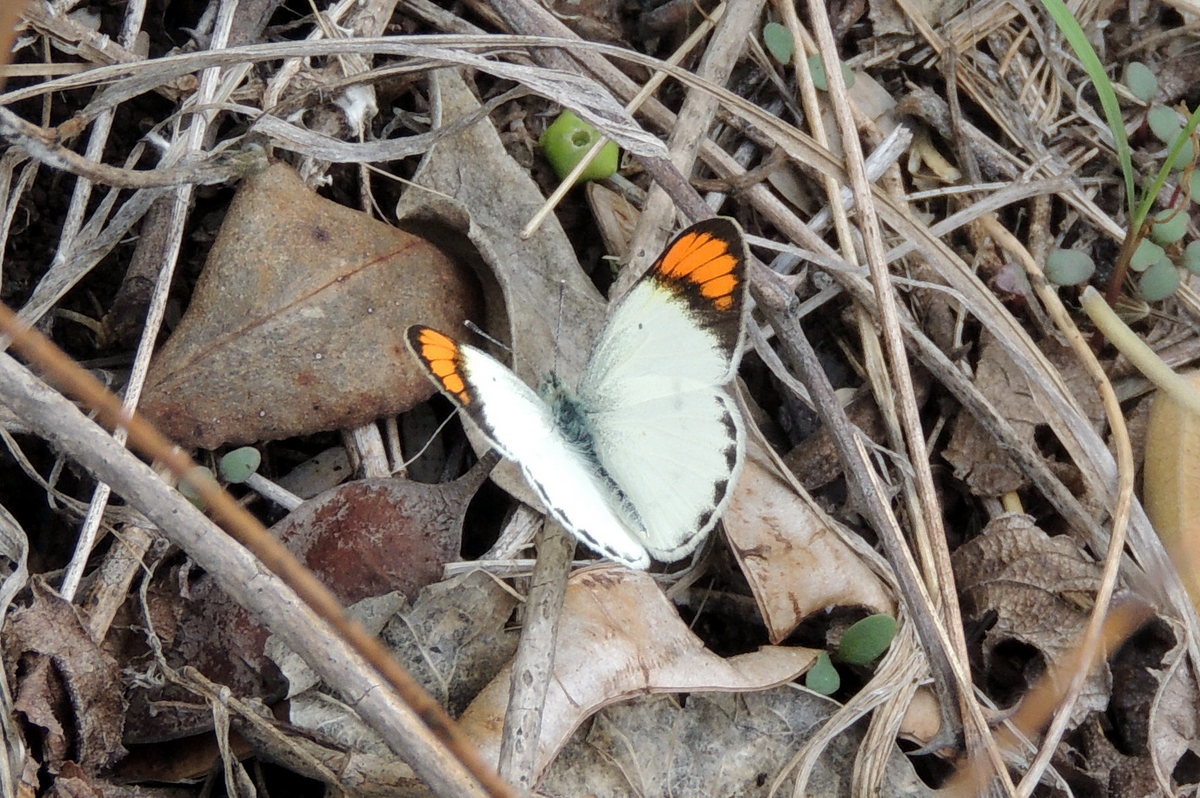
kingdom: Animalia
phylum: Arthropoda
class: Insecta
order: Lepidoptera
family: Pieridae
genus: Ixias
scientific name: Ixias marianne
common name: White orange tip
